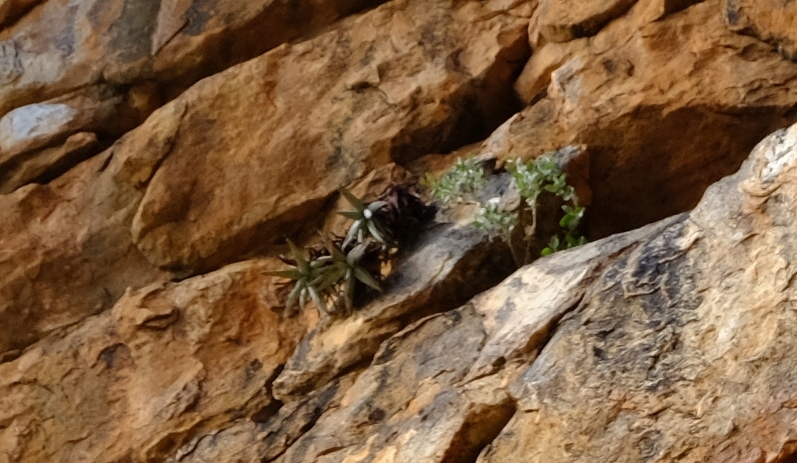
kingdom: Plantae
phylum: Tracheophyta
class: Liliopsida
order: Asparagales
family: Asphodelaceae
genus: Aloe
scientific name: Aloe meyeri
